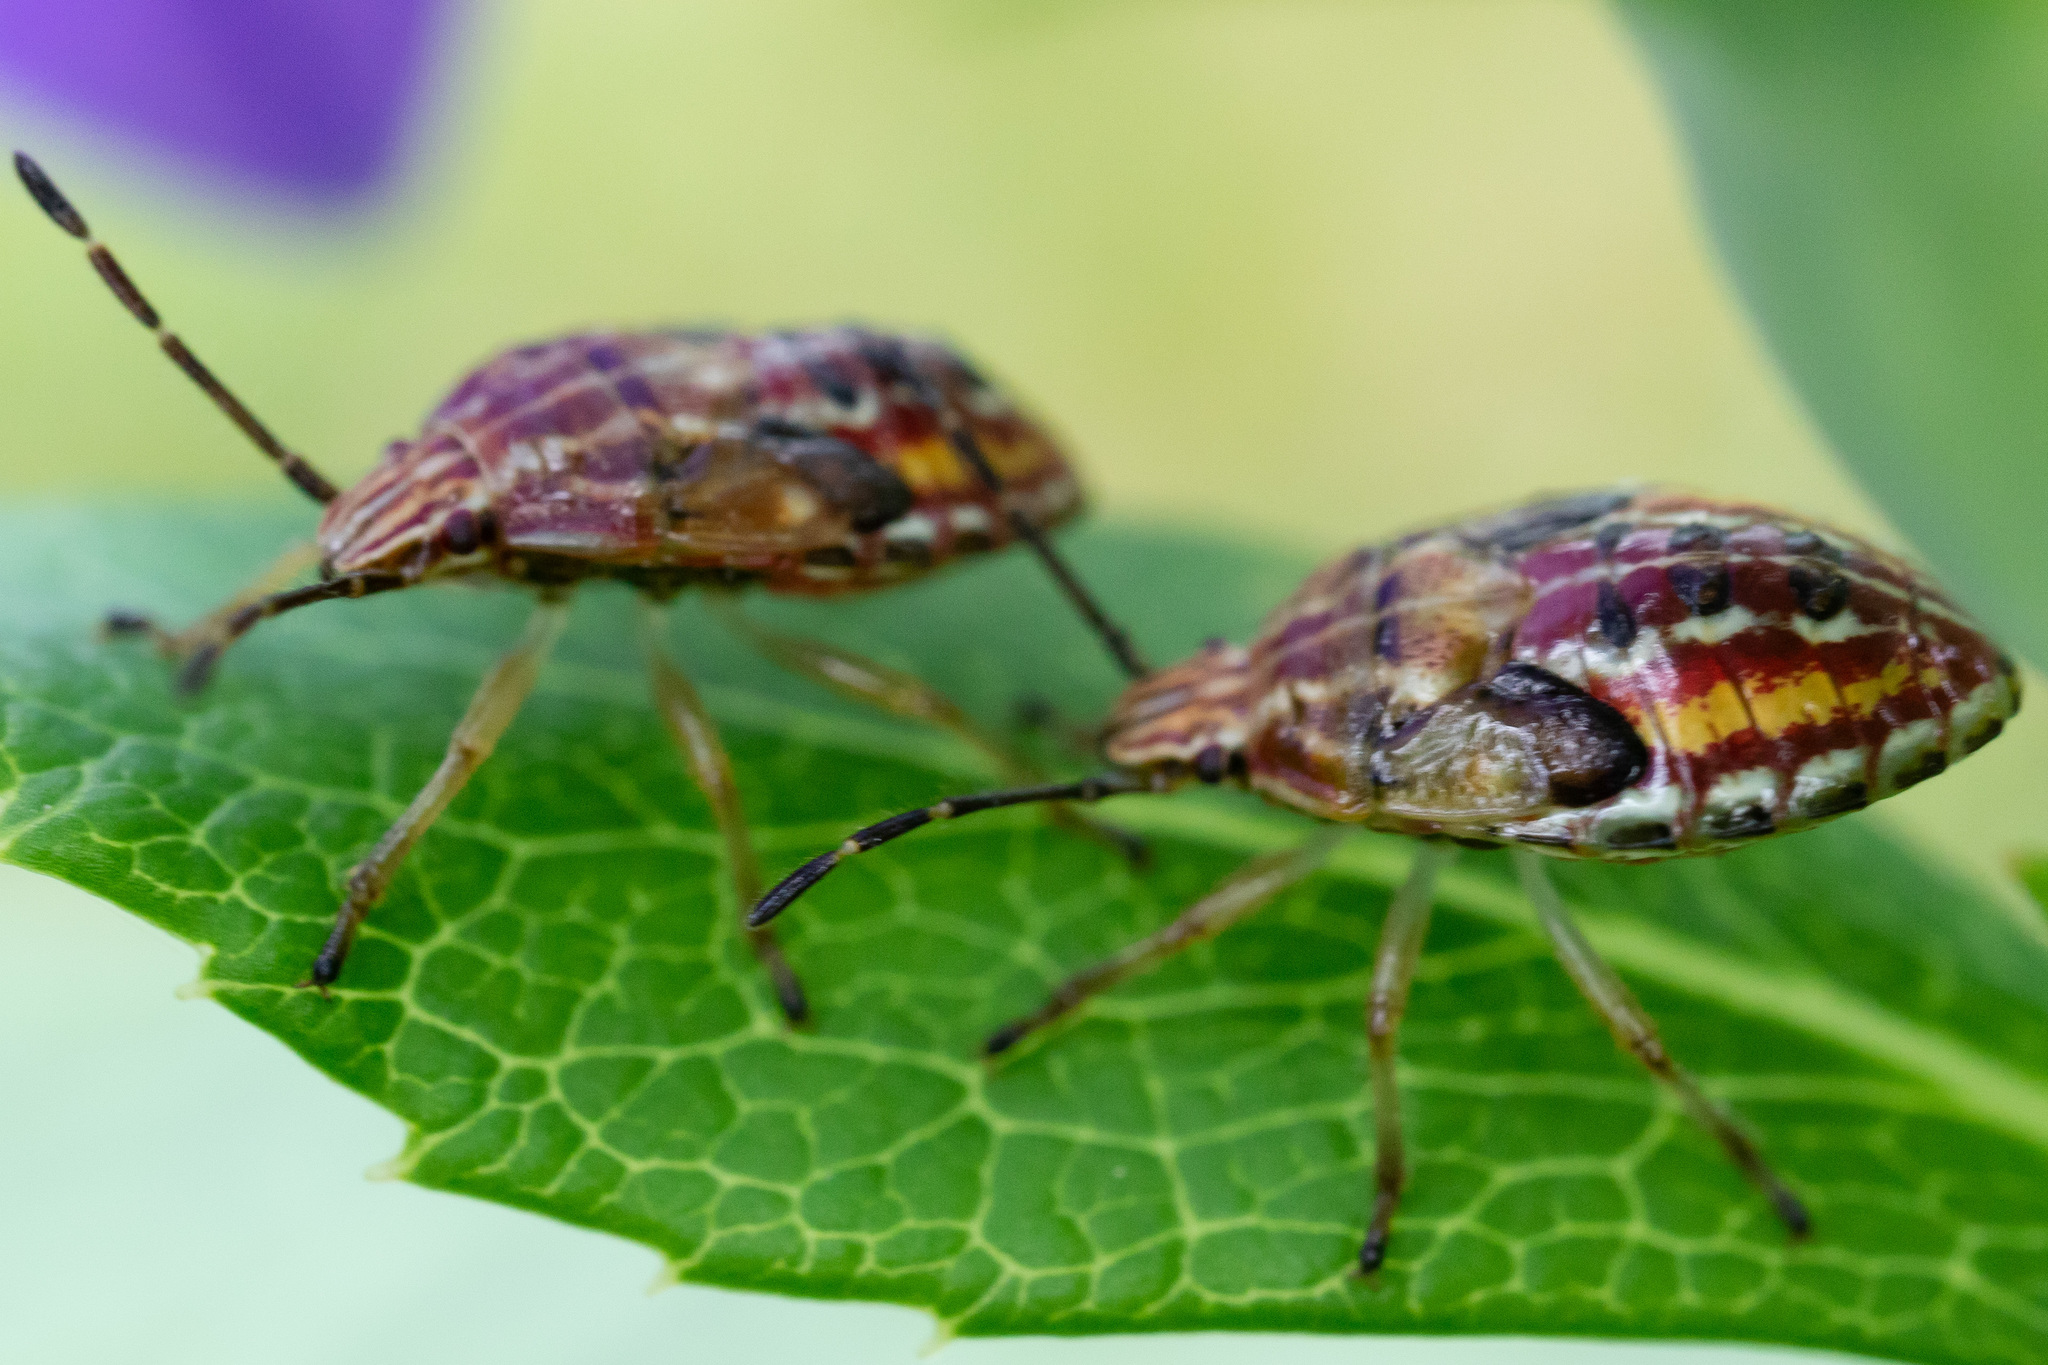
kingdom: Animalia
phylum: Arthropoda
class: Insecta
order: Hemiptera
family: Acanthosomatidae
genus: Elasmucha
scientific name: Elasmucha lateralis
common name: Shield bug
